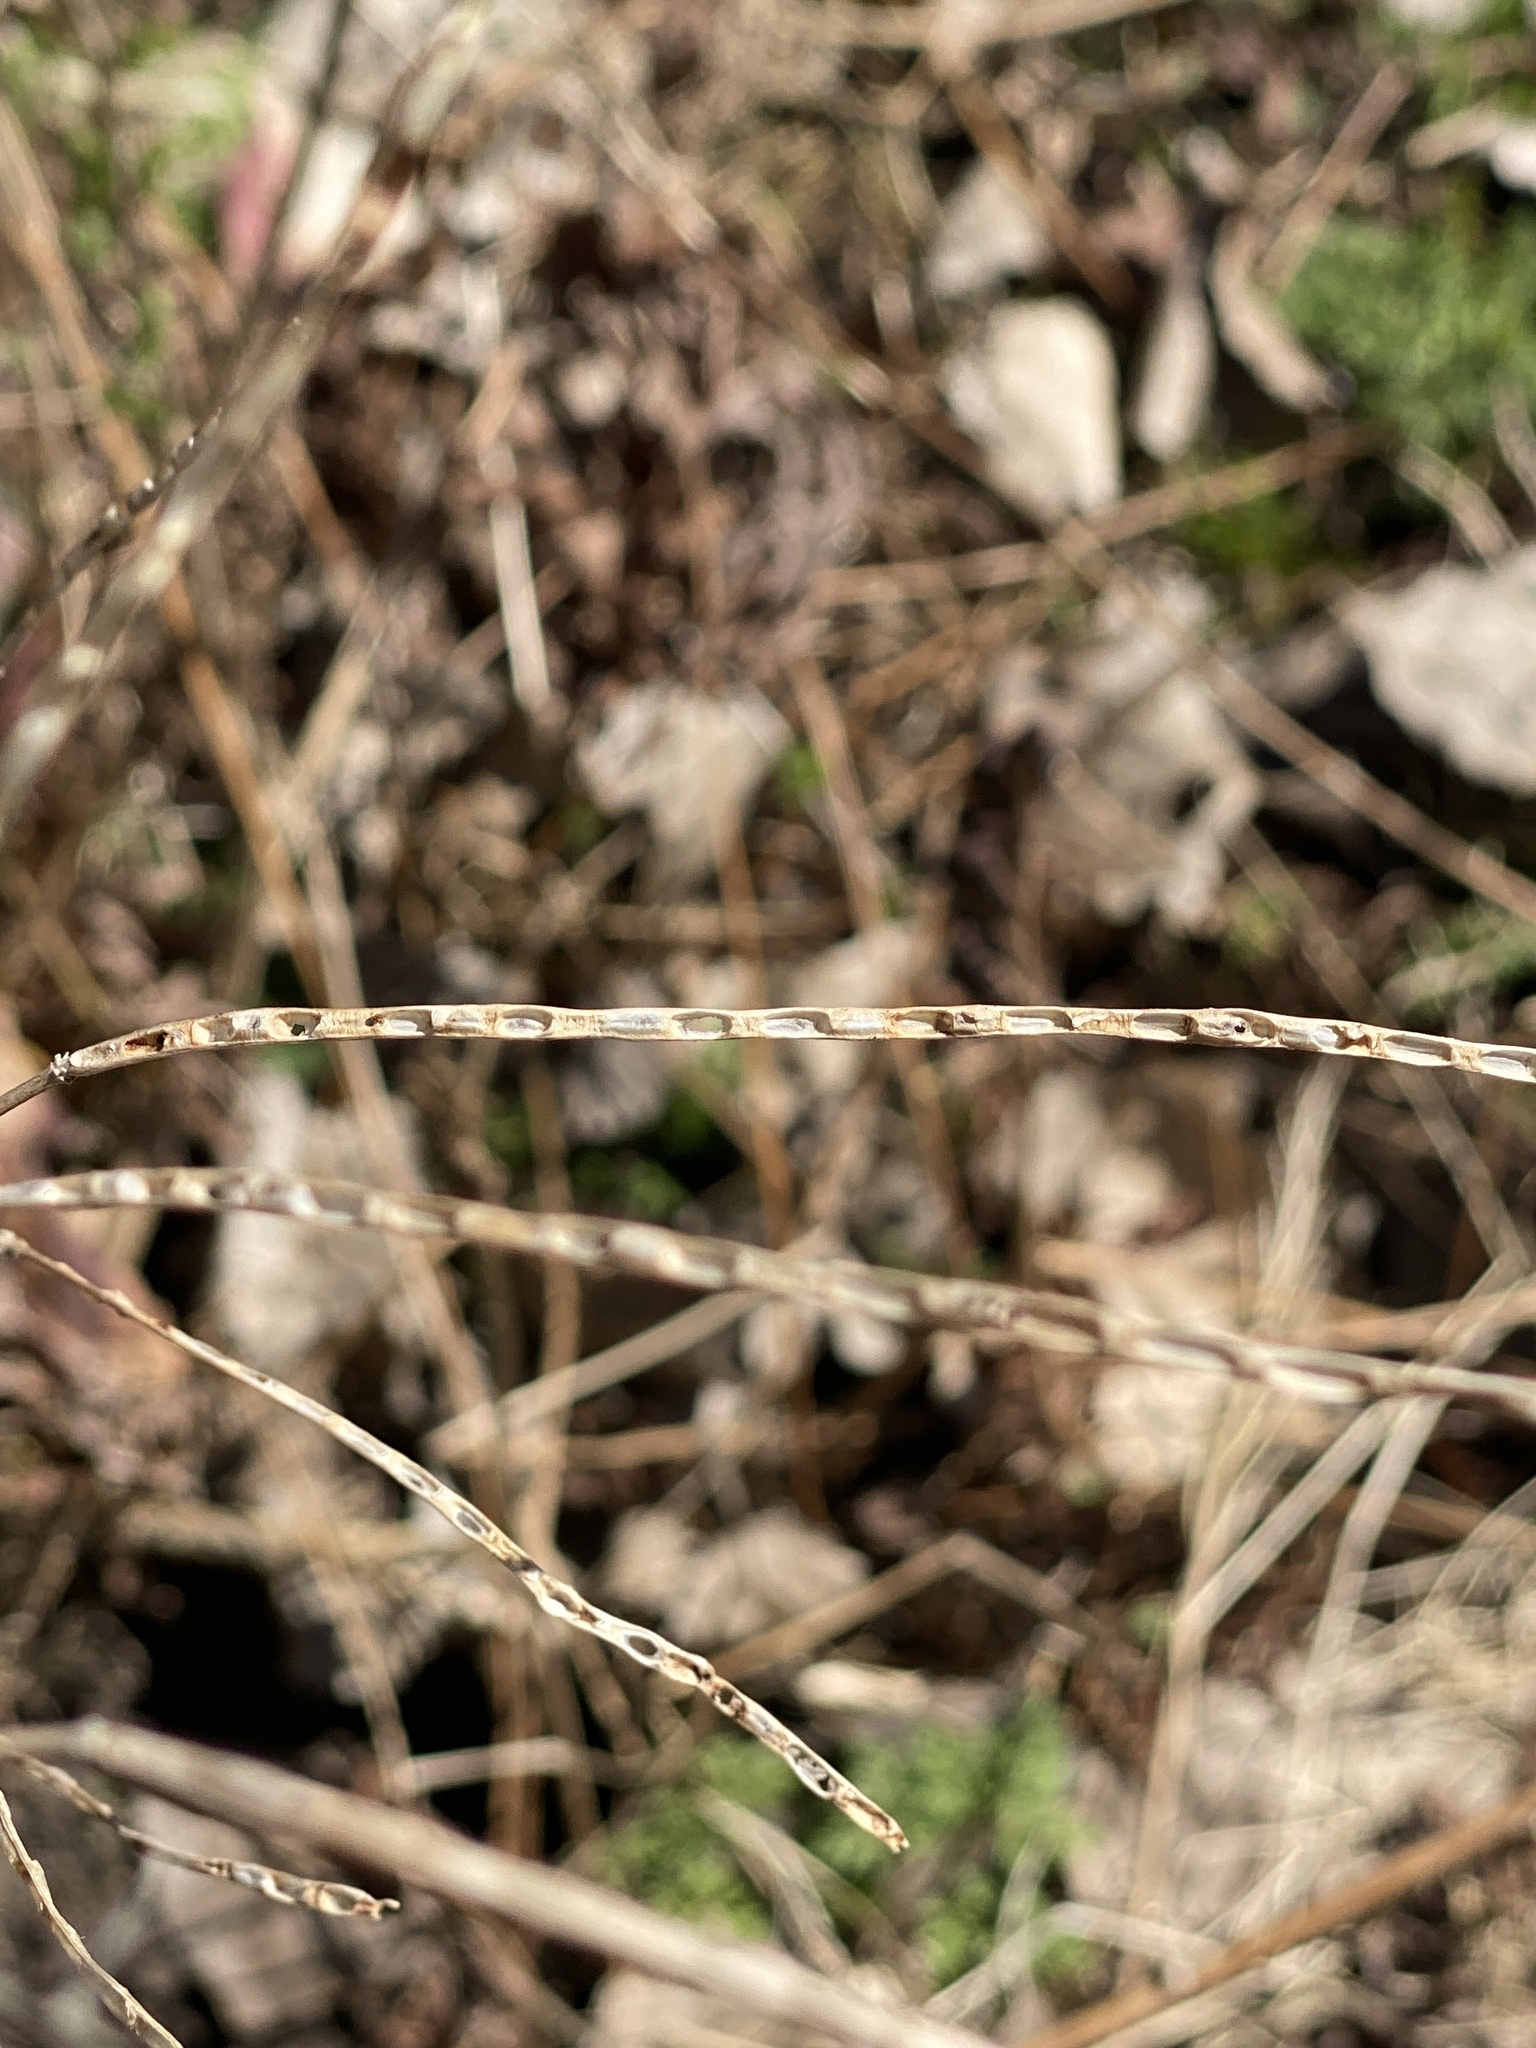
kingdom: Plantae
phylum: Tracheophyta
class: Magnoliopsida
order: Brassicales
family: Brassicaceae
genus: Alliaria
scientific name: Alliaria petiolata
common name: Garlic mustard
